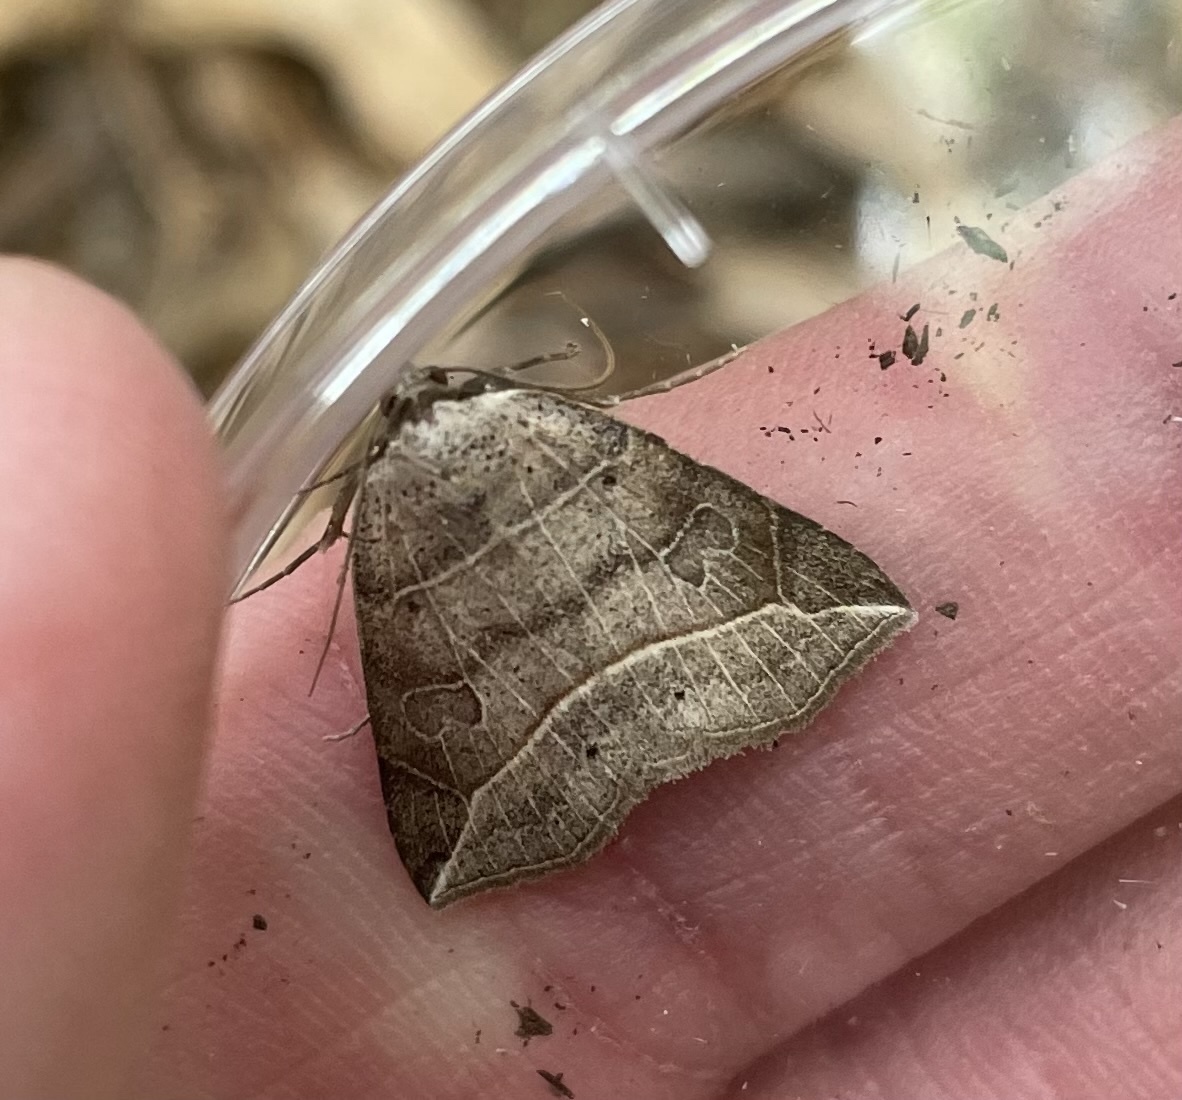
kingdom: Animalia
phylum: Arthropoda
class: Insecta
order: Lepidoptera
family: Erebidae
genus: Isogona
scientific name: Isogona tenuis
